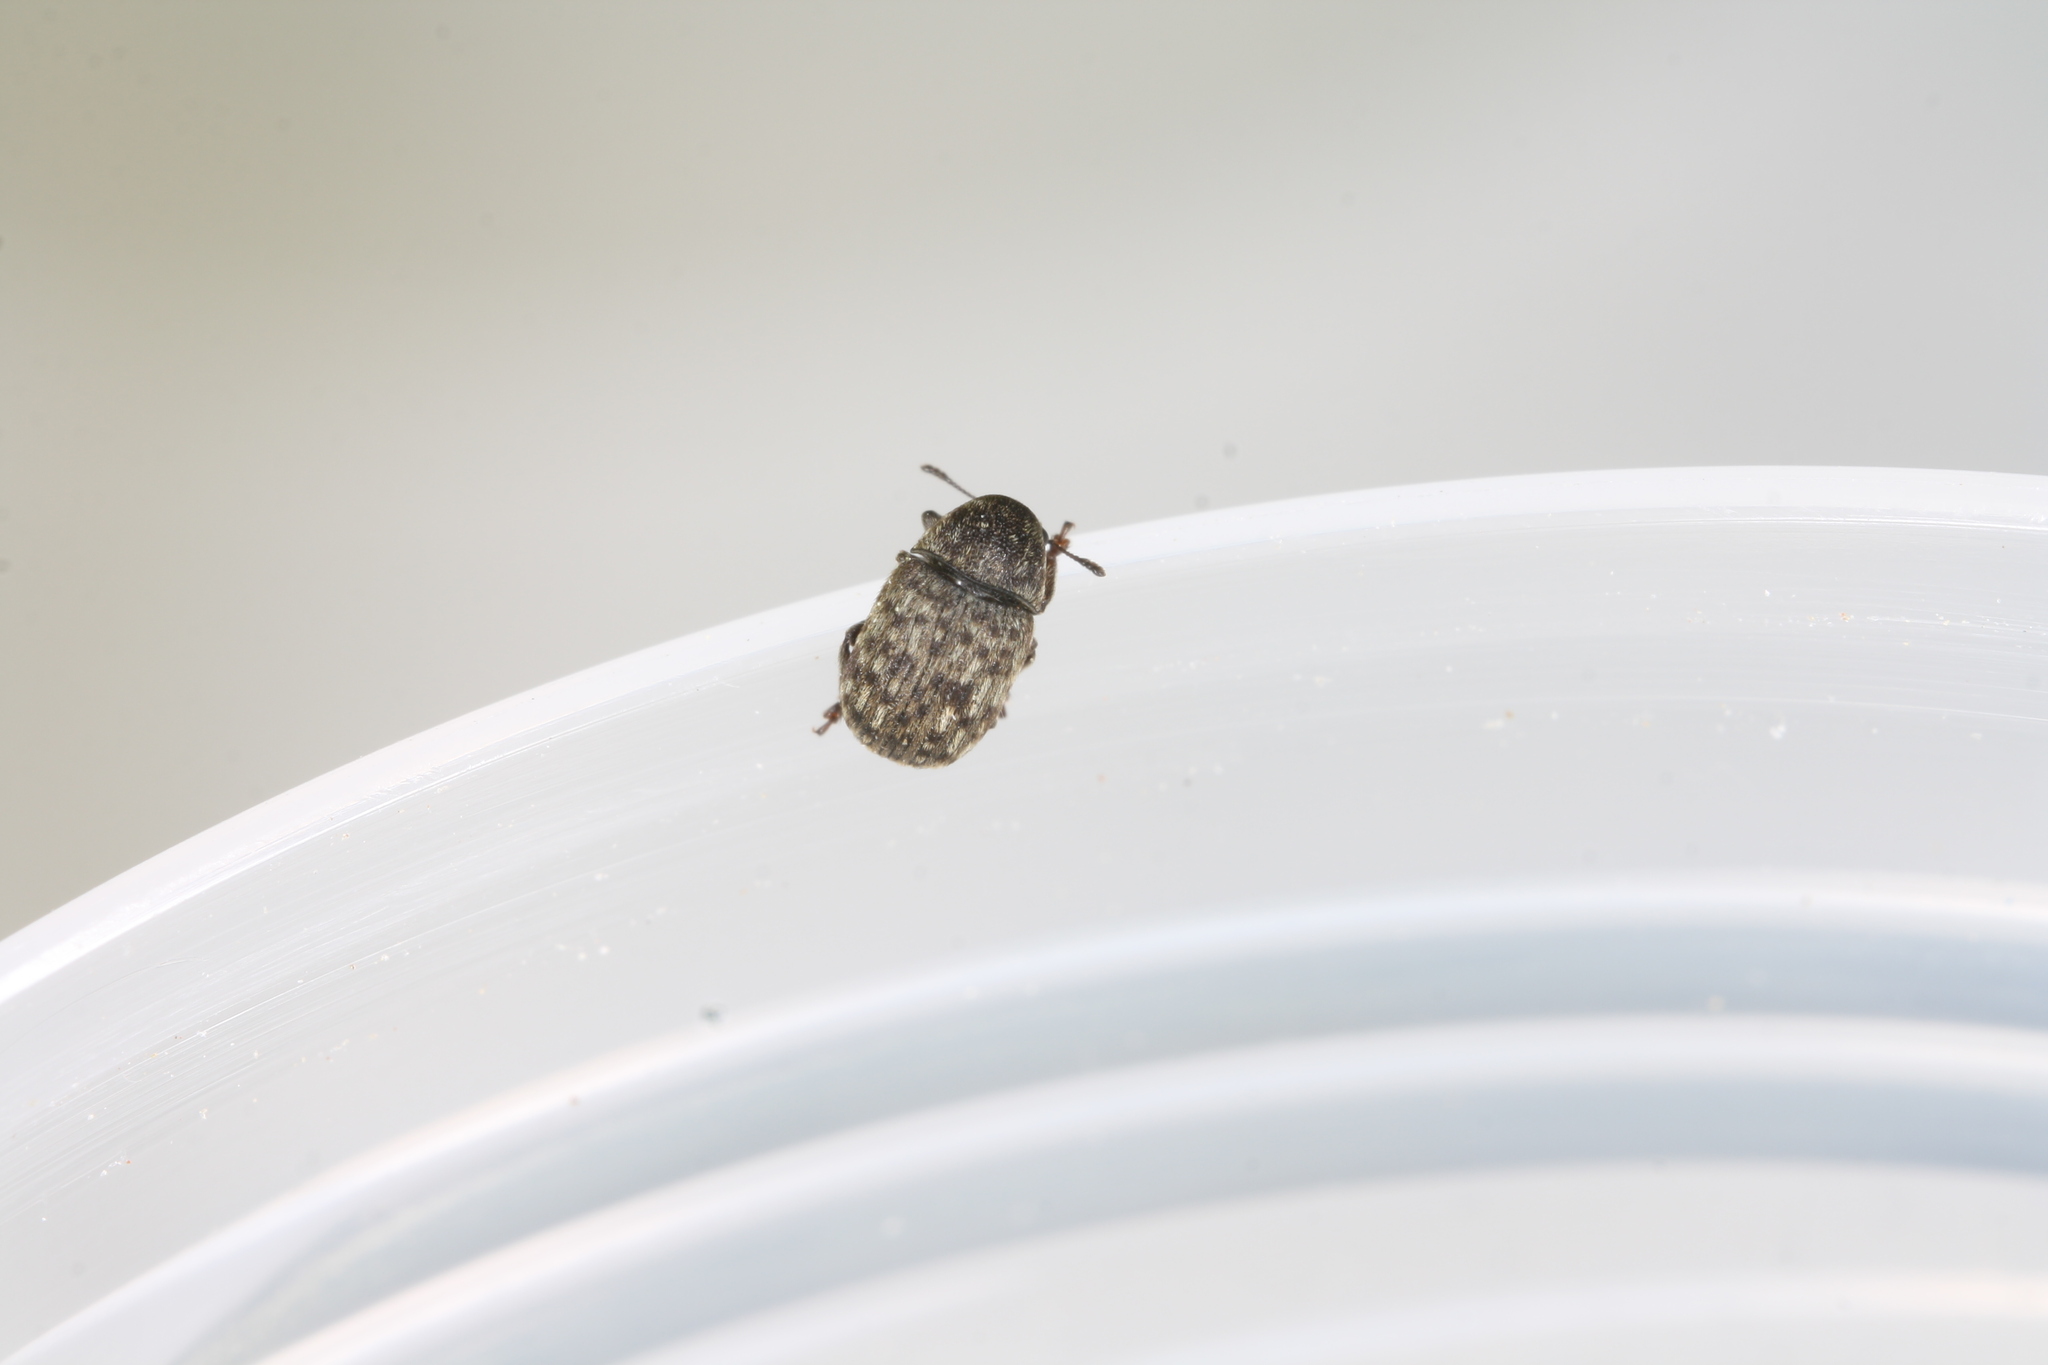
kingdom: Animalia
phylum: Arthropoda
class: Insecta
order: Coleoptera
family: Anthribidae
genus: Anthribus
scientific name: Anthribus nebulosus
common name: Fungus weevil
